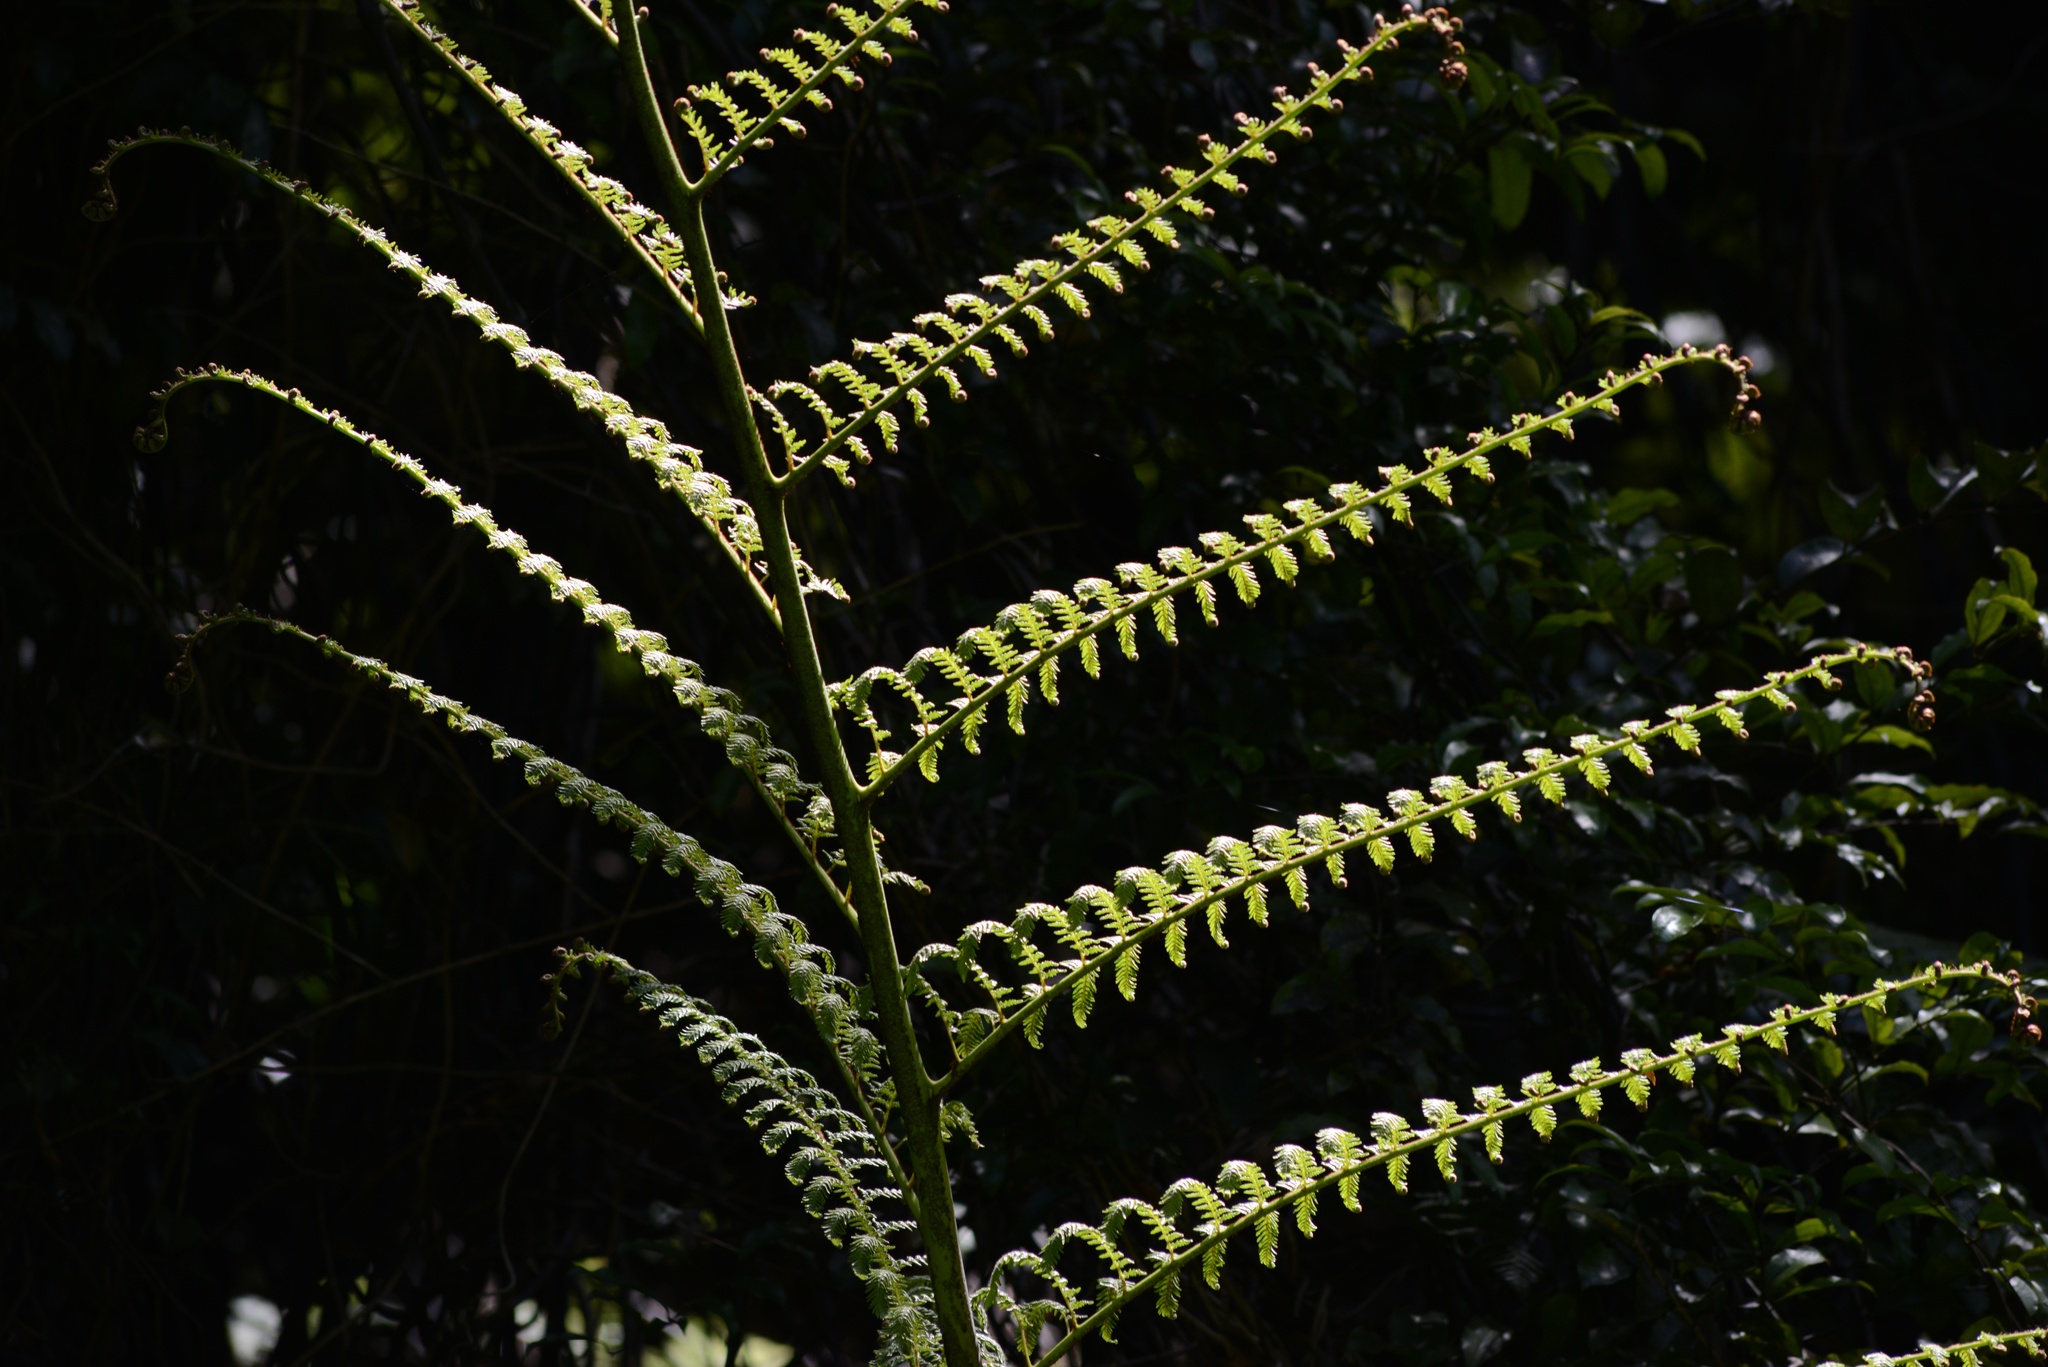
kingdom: Plantae
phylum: Tracheophyta
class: Polypodiopsida
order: Cyatheales
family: Cyatheaceae
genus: Sphaeropteris
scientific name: Sphaeropteris medullaris
